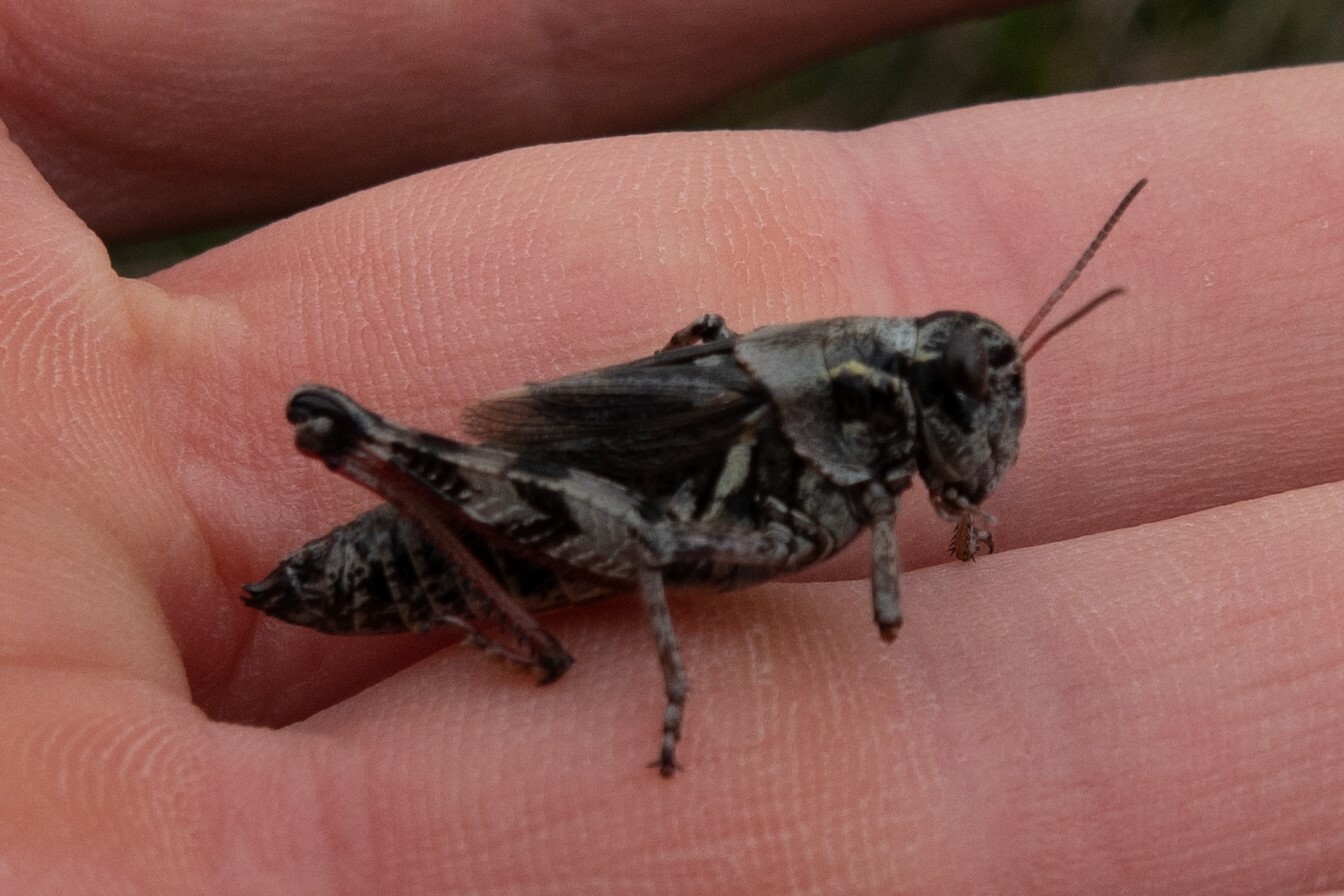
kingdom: Animalia
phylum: Arthropoda
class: Insecta
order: Orthoptera
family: Acrididae
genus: Bohemanella
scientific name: Bohemanella frigida
